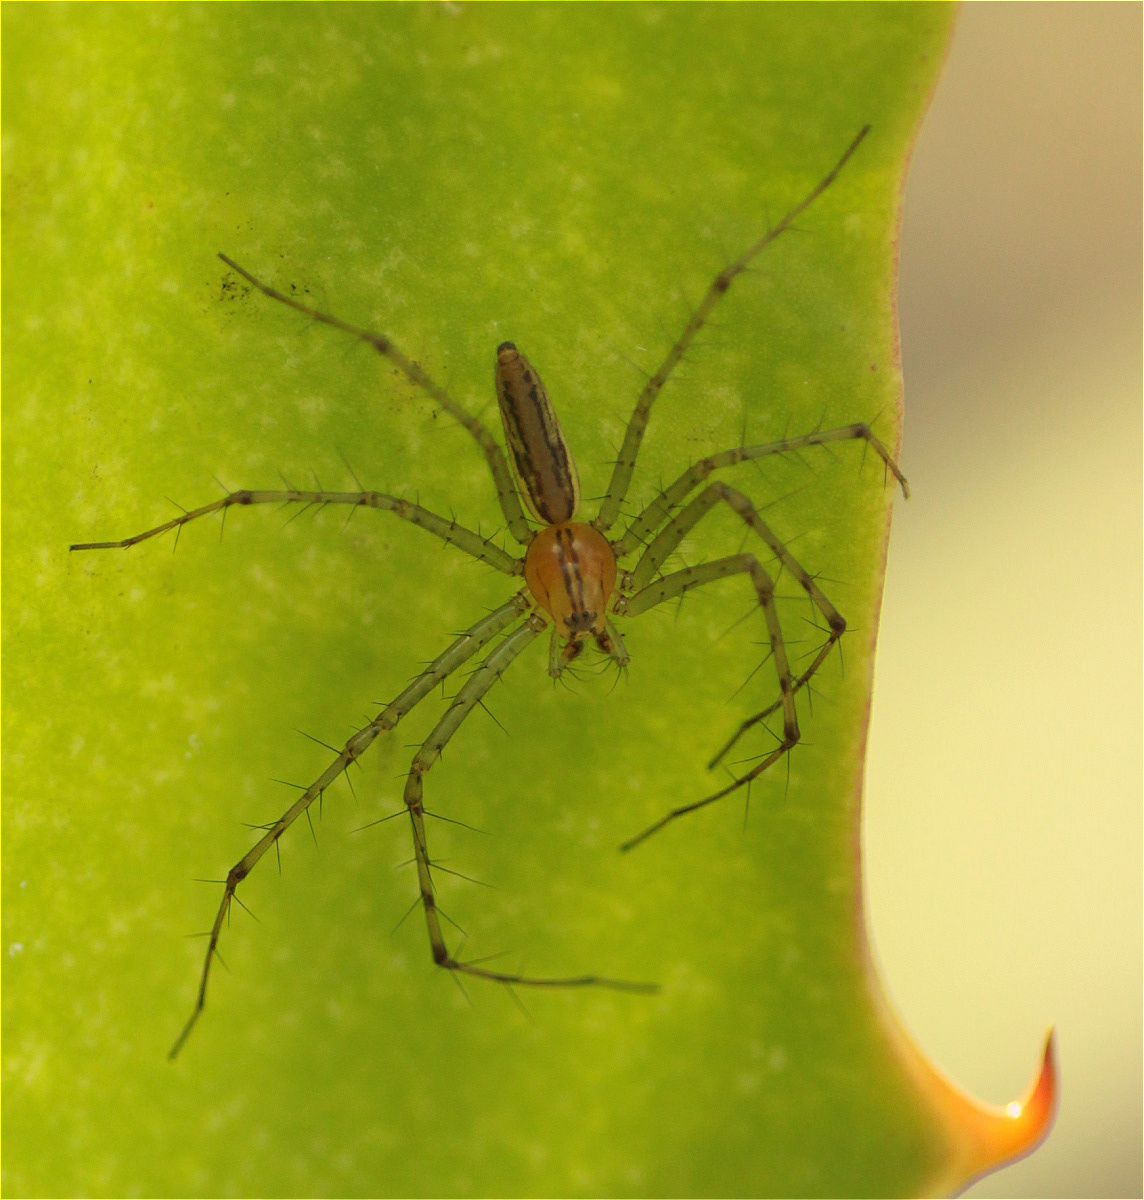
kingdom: Animalia
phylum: Arthropoda
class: Arachnida
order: Araneae
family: Oxyopidae
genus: Peucetia
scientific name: Peucetia rubrolineata
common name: Lynx spiders
